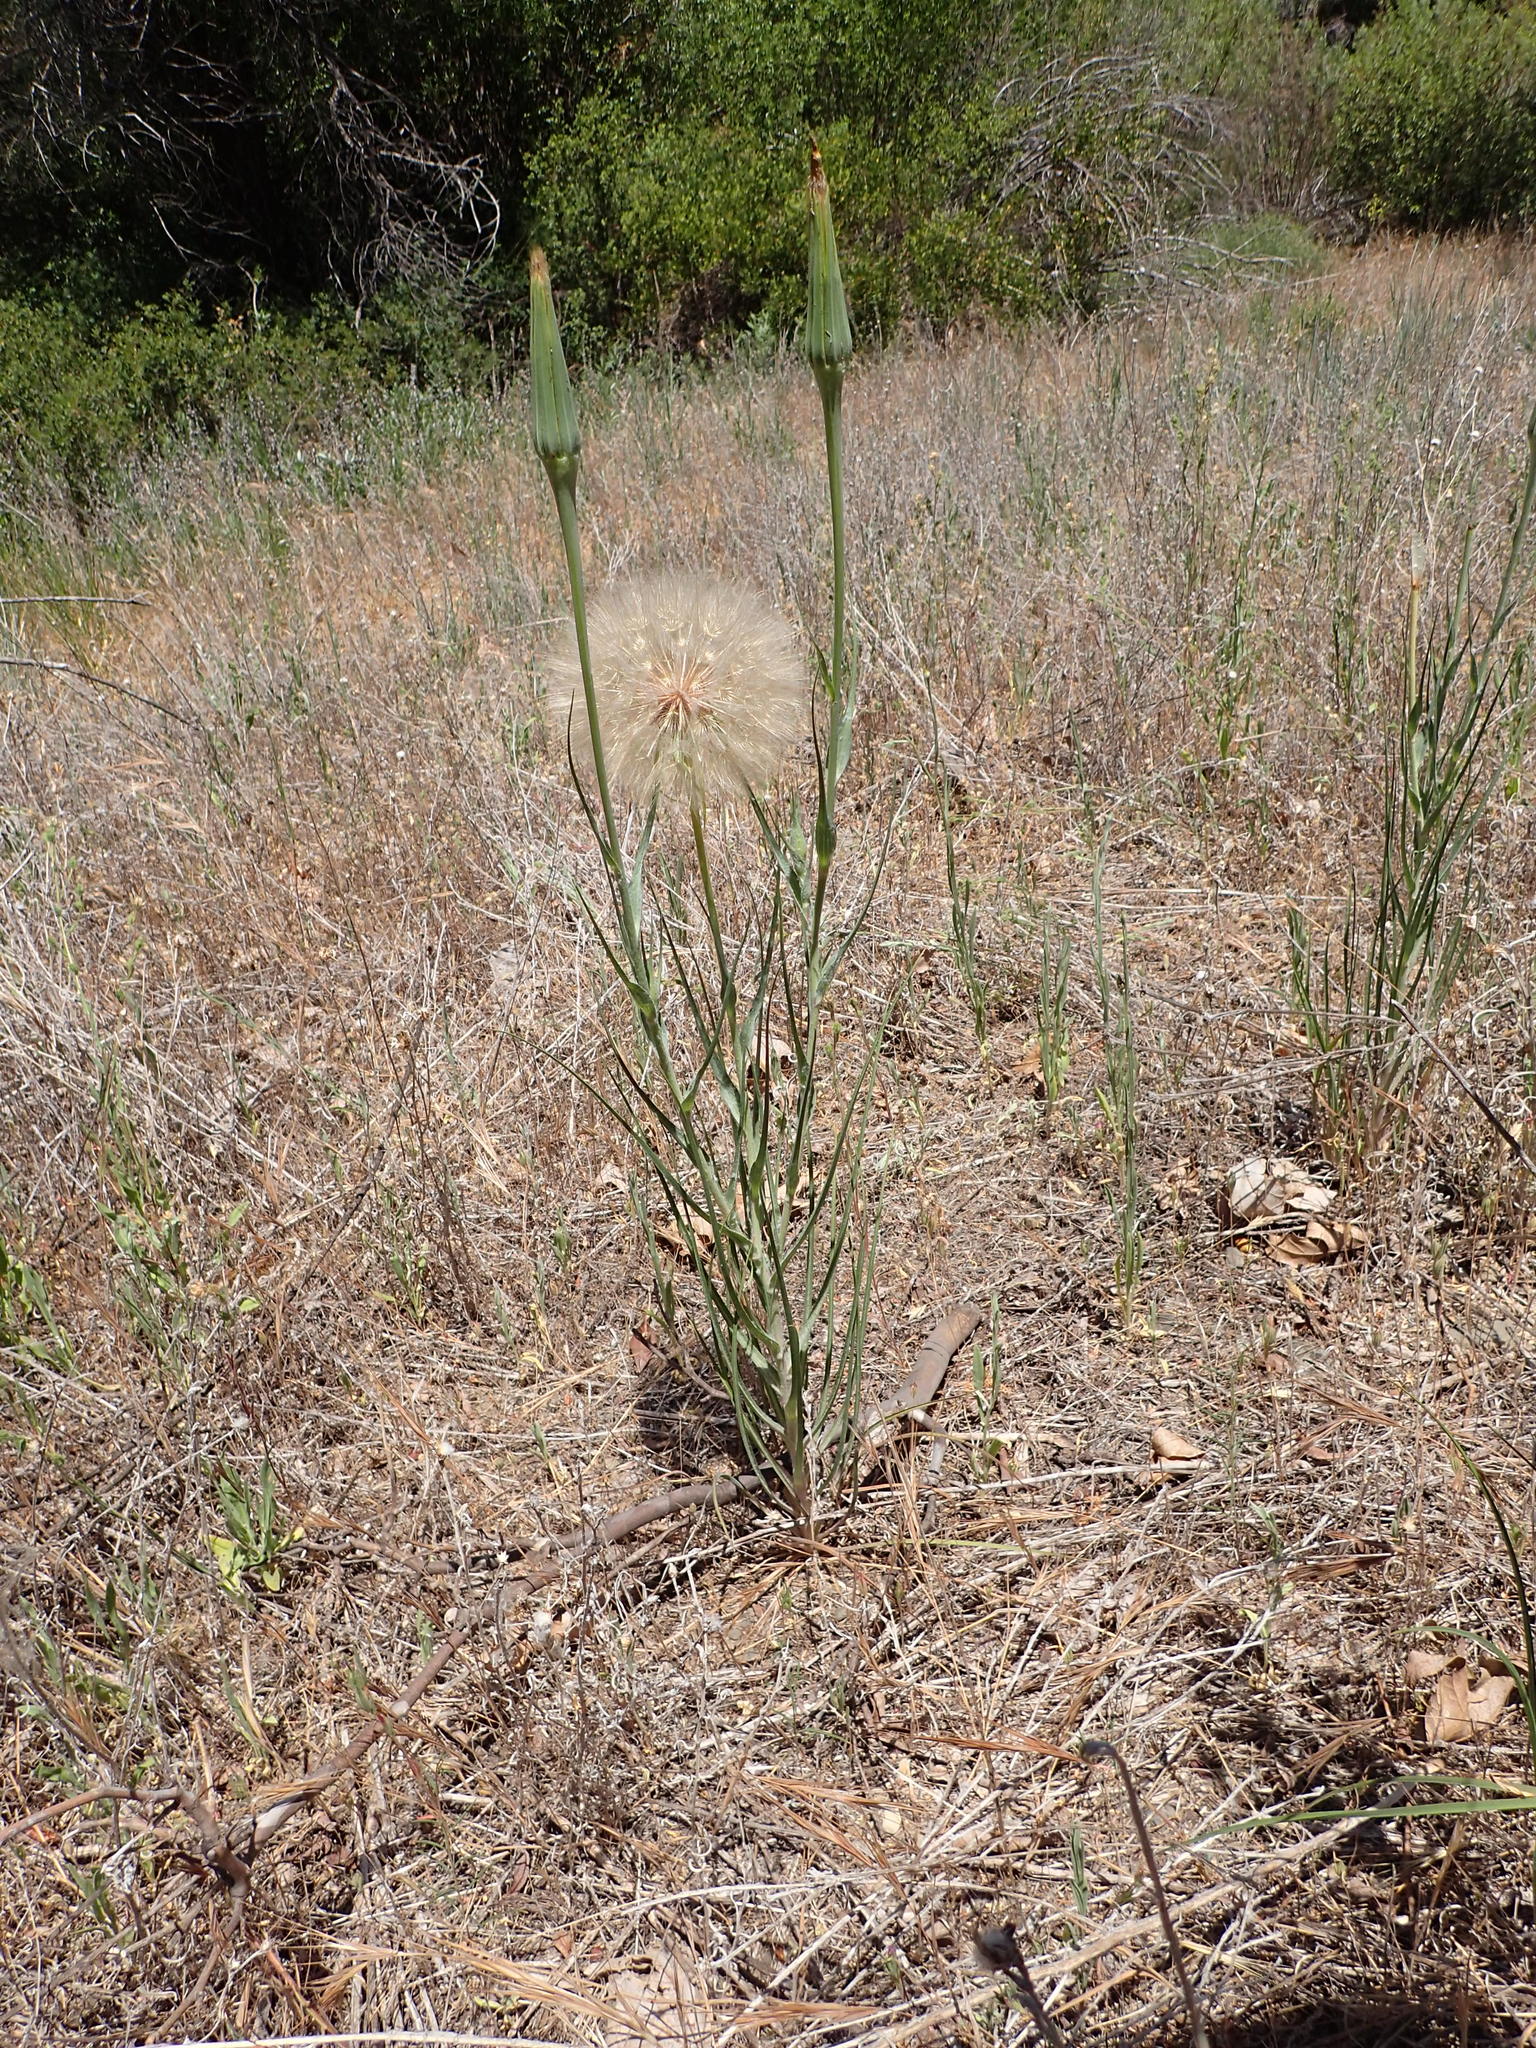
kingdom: Plantae
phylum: Tracheophyta
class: Magnoliopsida
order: Asterales
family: Asteraceae
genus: Tragopogon
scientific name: Tragopogon dubius
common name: Yellow salsify
